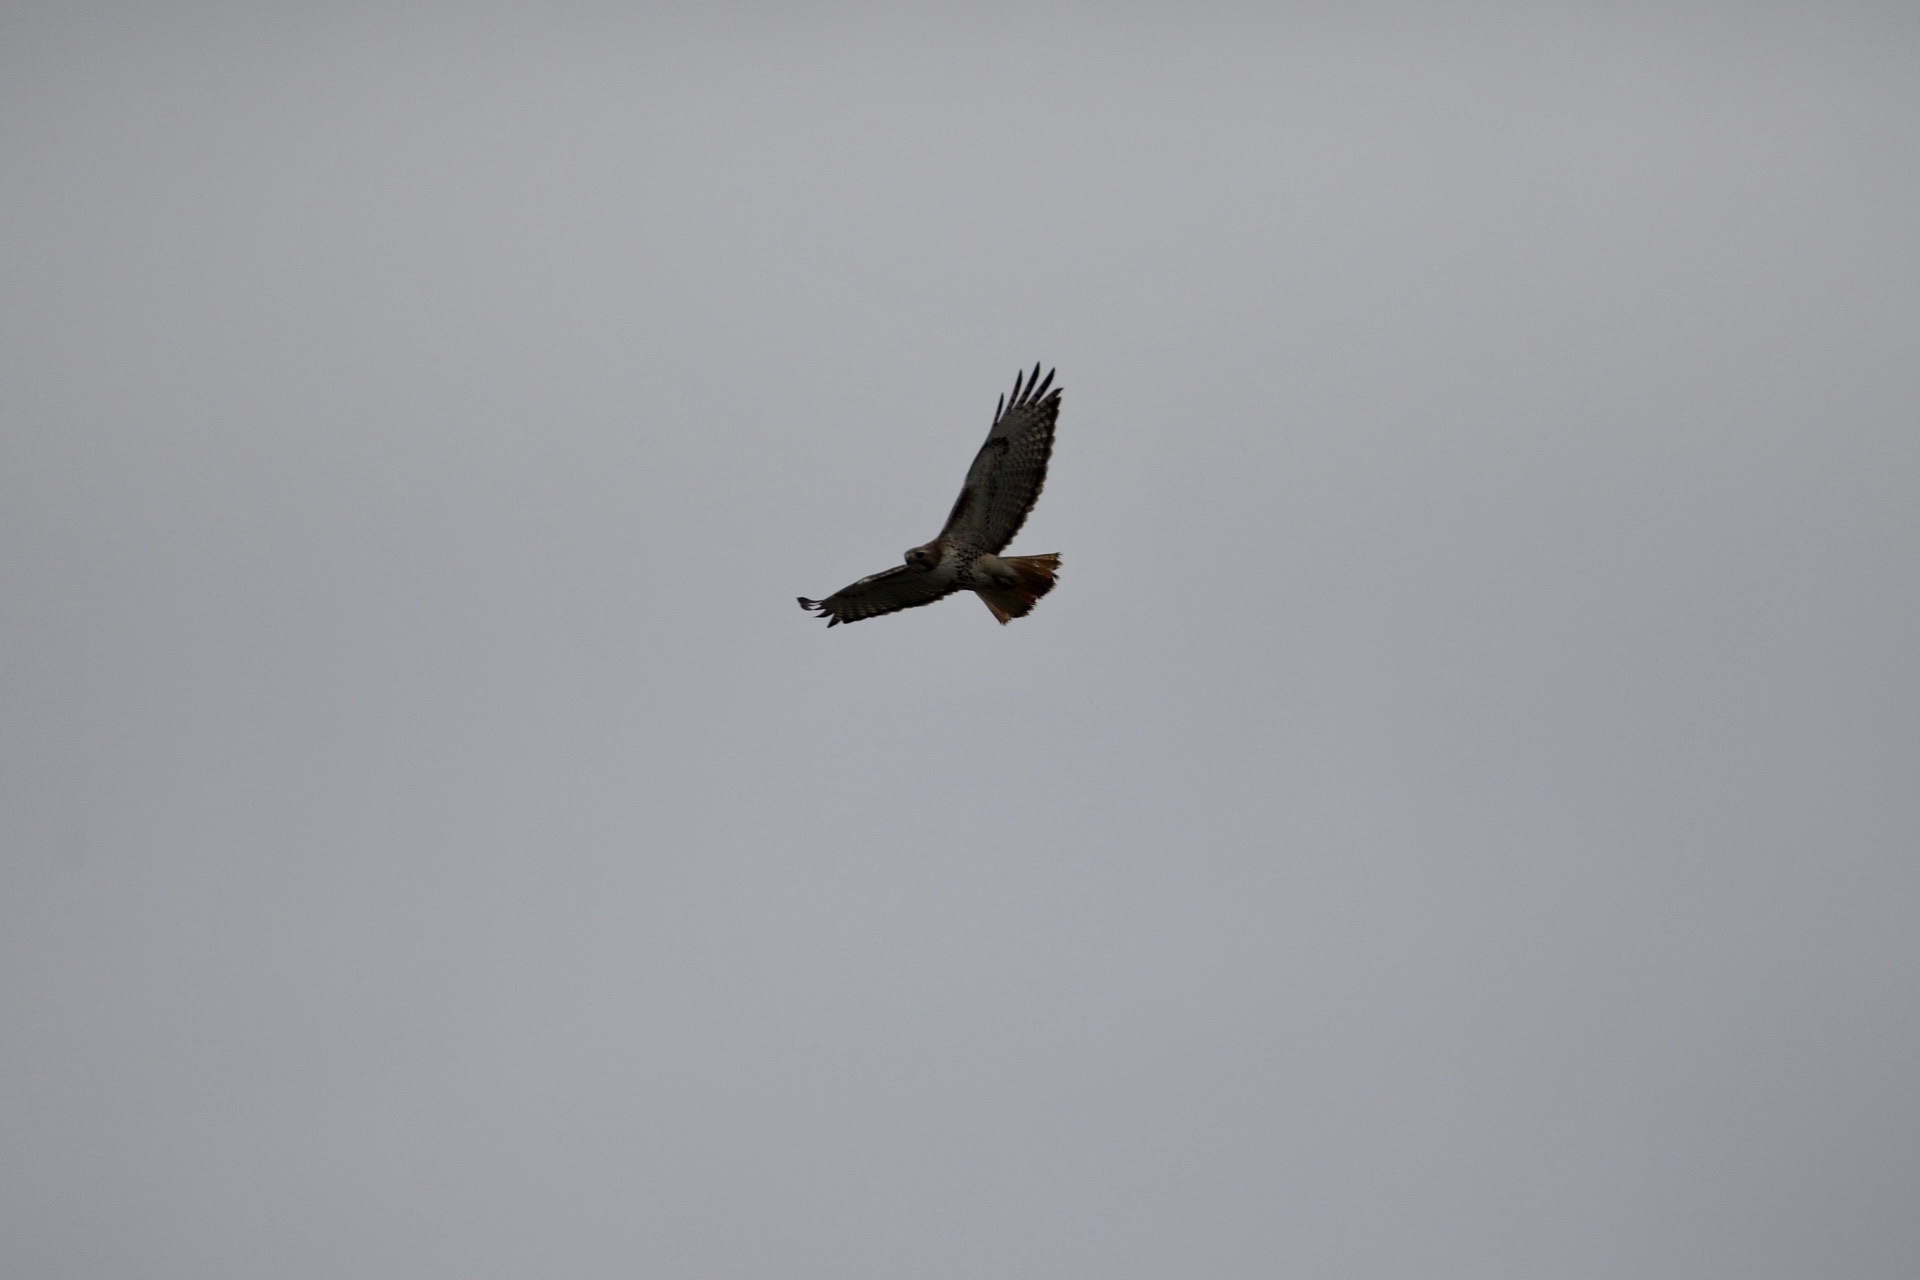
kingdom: Animalia
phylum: Chordata
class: Aves
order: Accipitriformes
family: Accipitridae
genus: Circus
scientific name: Circus cyaneus
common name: Hen harrier
